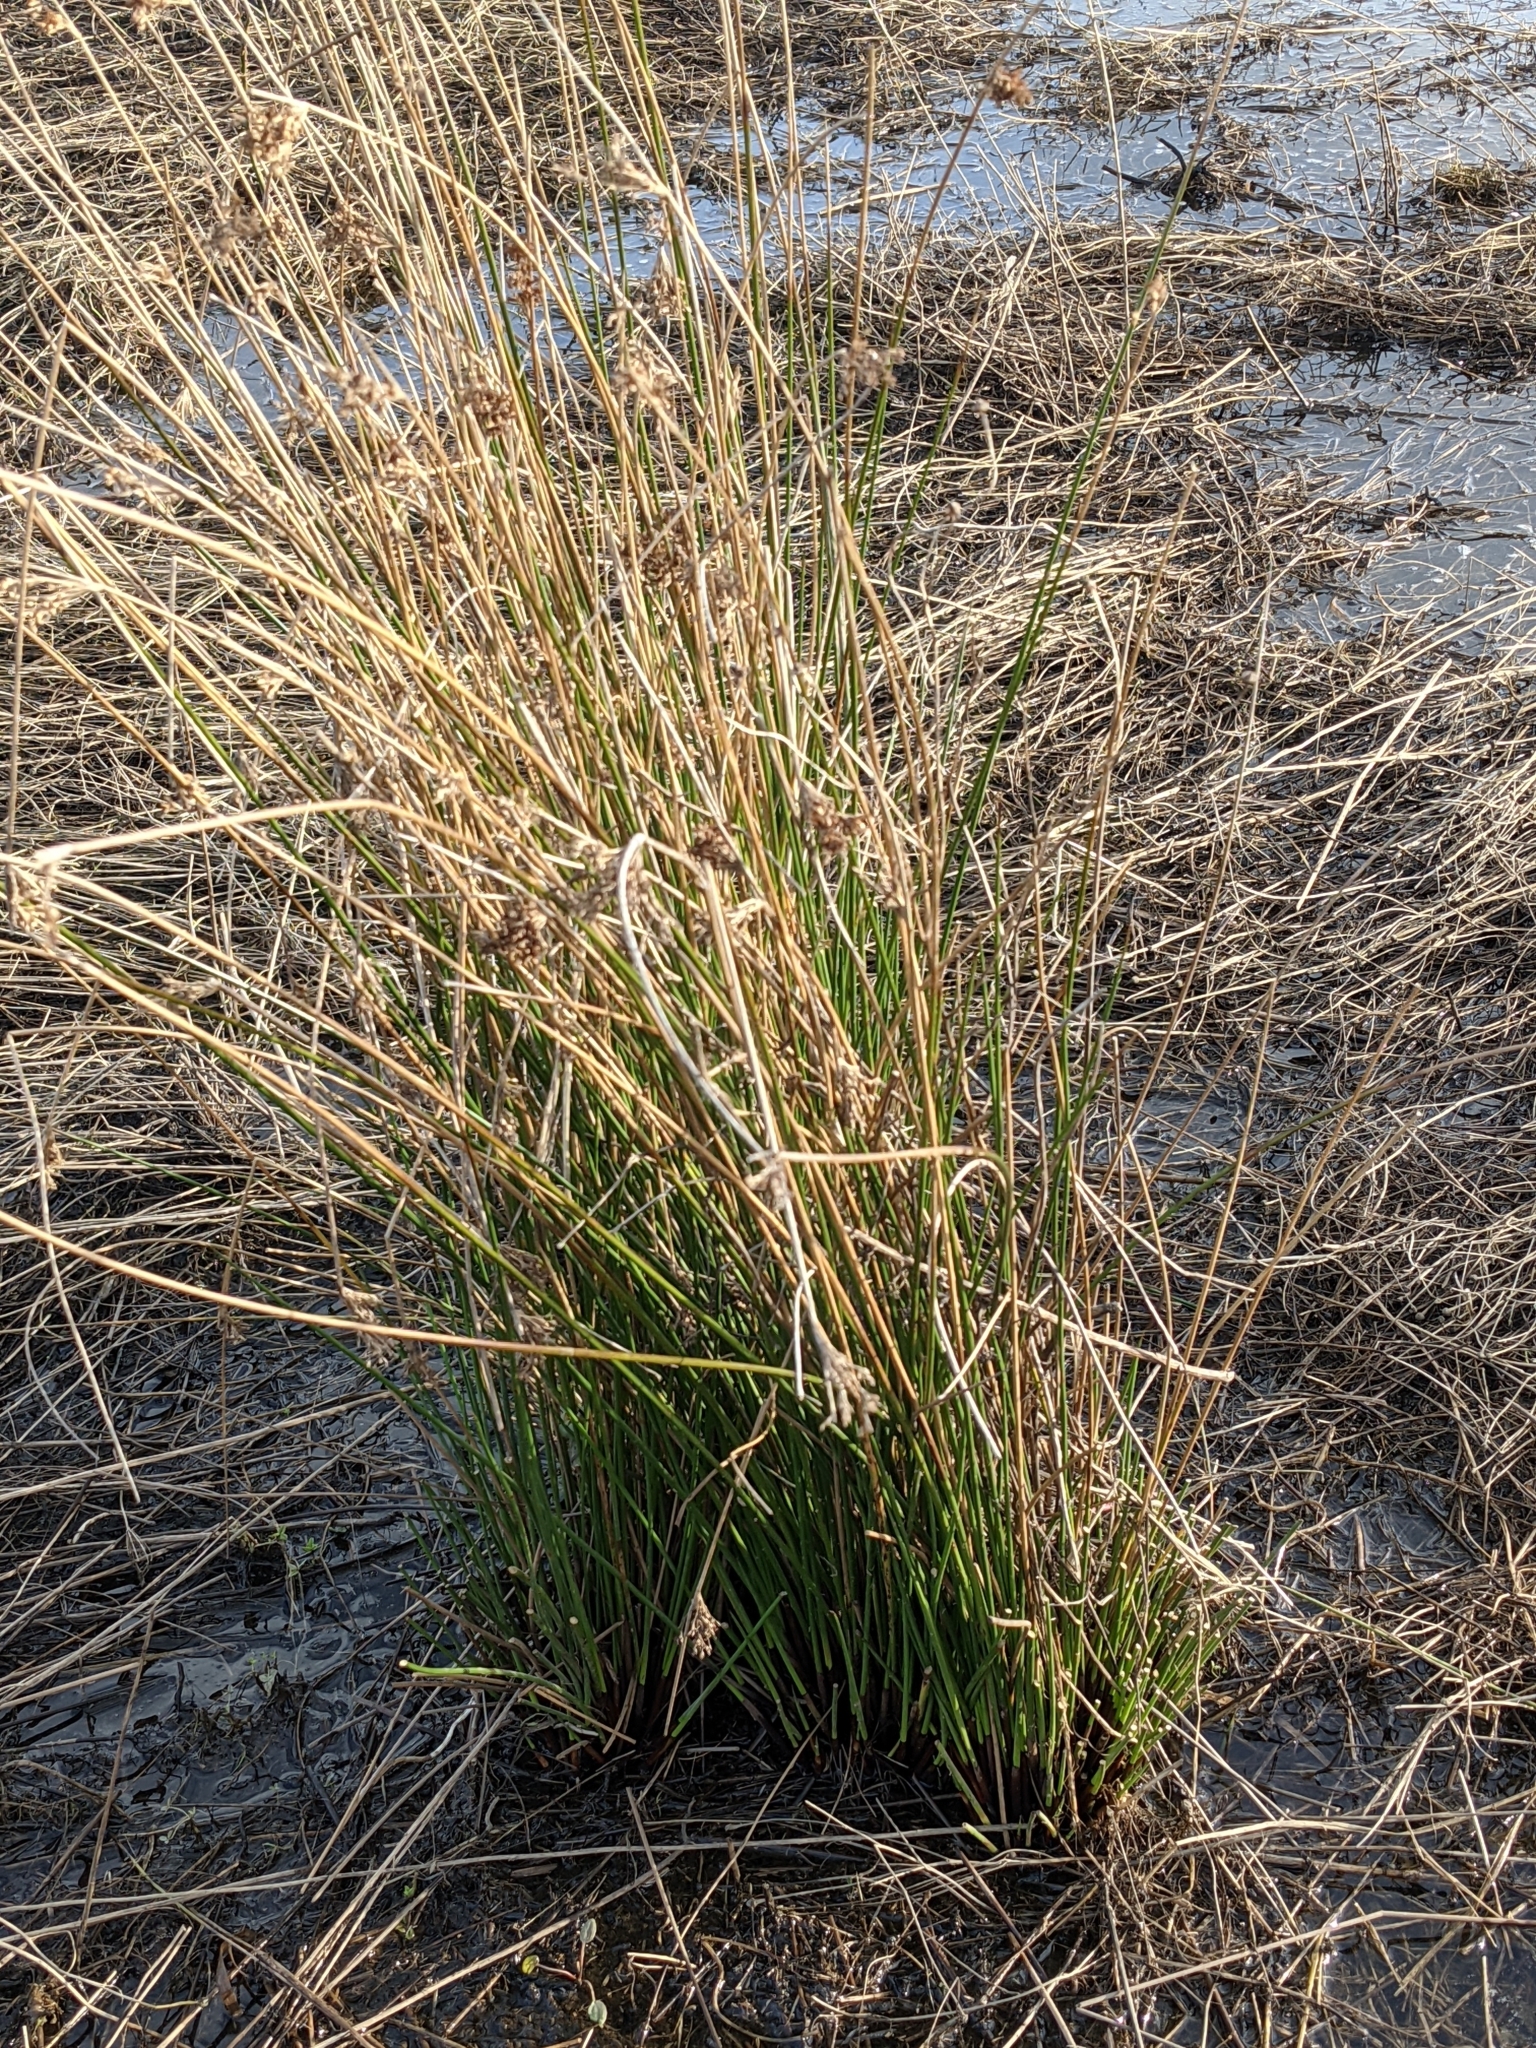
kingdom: Plantae
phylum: Tracheophyta
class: Liliopsida
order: Poales
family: Juncaceae
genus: Juncus
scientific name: Juncus effusus
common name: Soft rush
